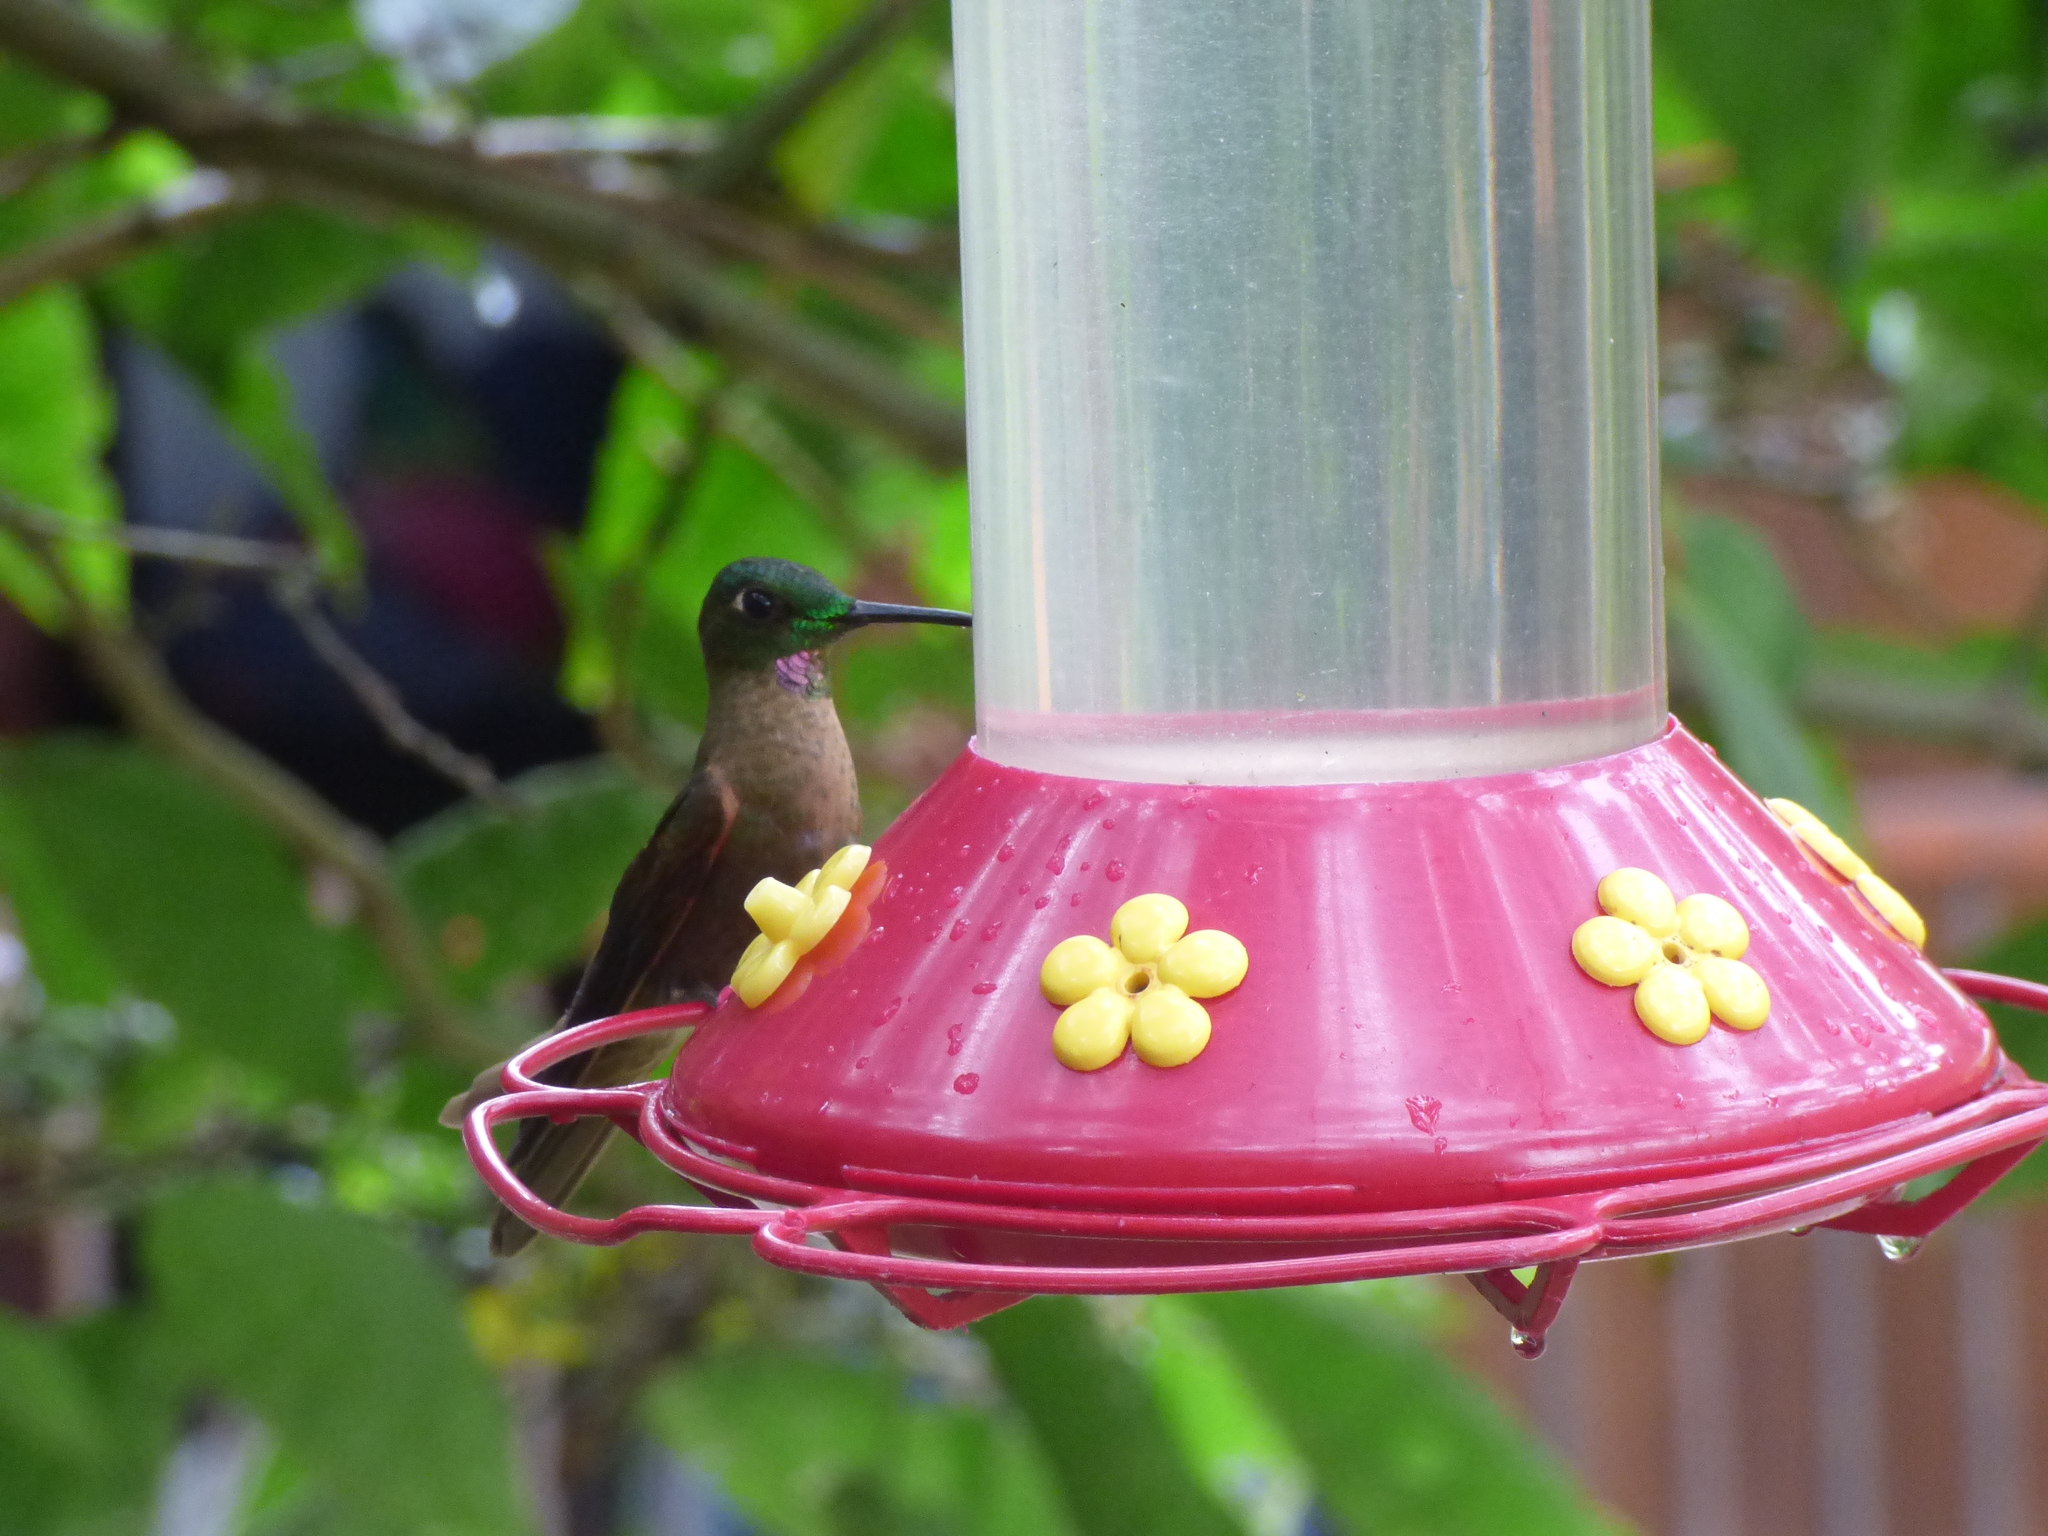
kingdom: Animalia
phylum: Chordata
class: Aves
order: Apodiformes
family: Trochilidae
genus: Heliodoxa
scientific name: Heliodoxa rubinoides
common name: Fawn-breasted brilliant
